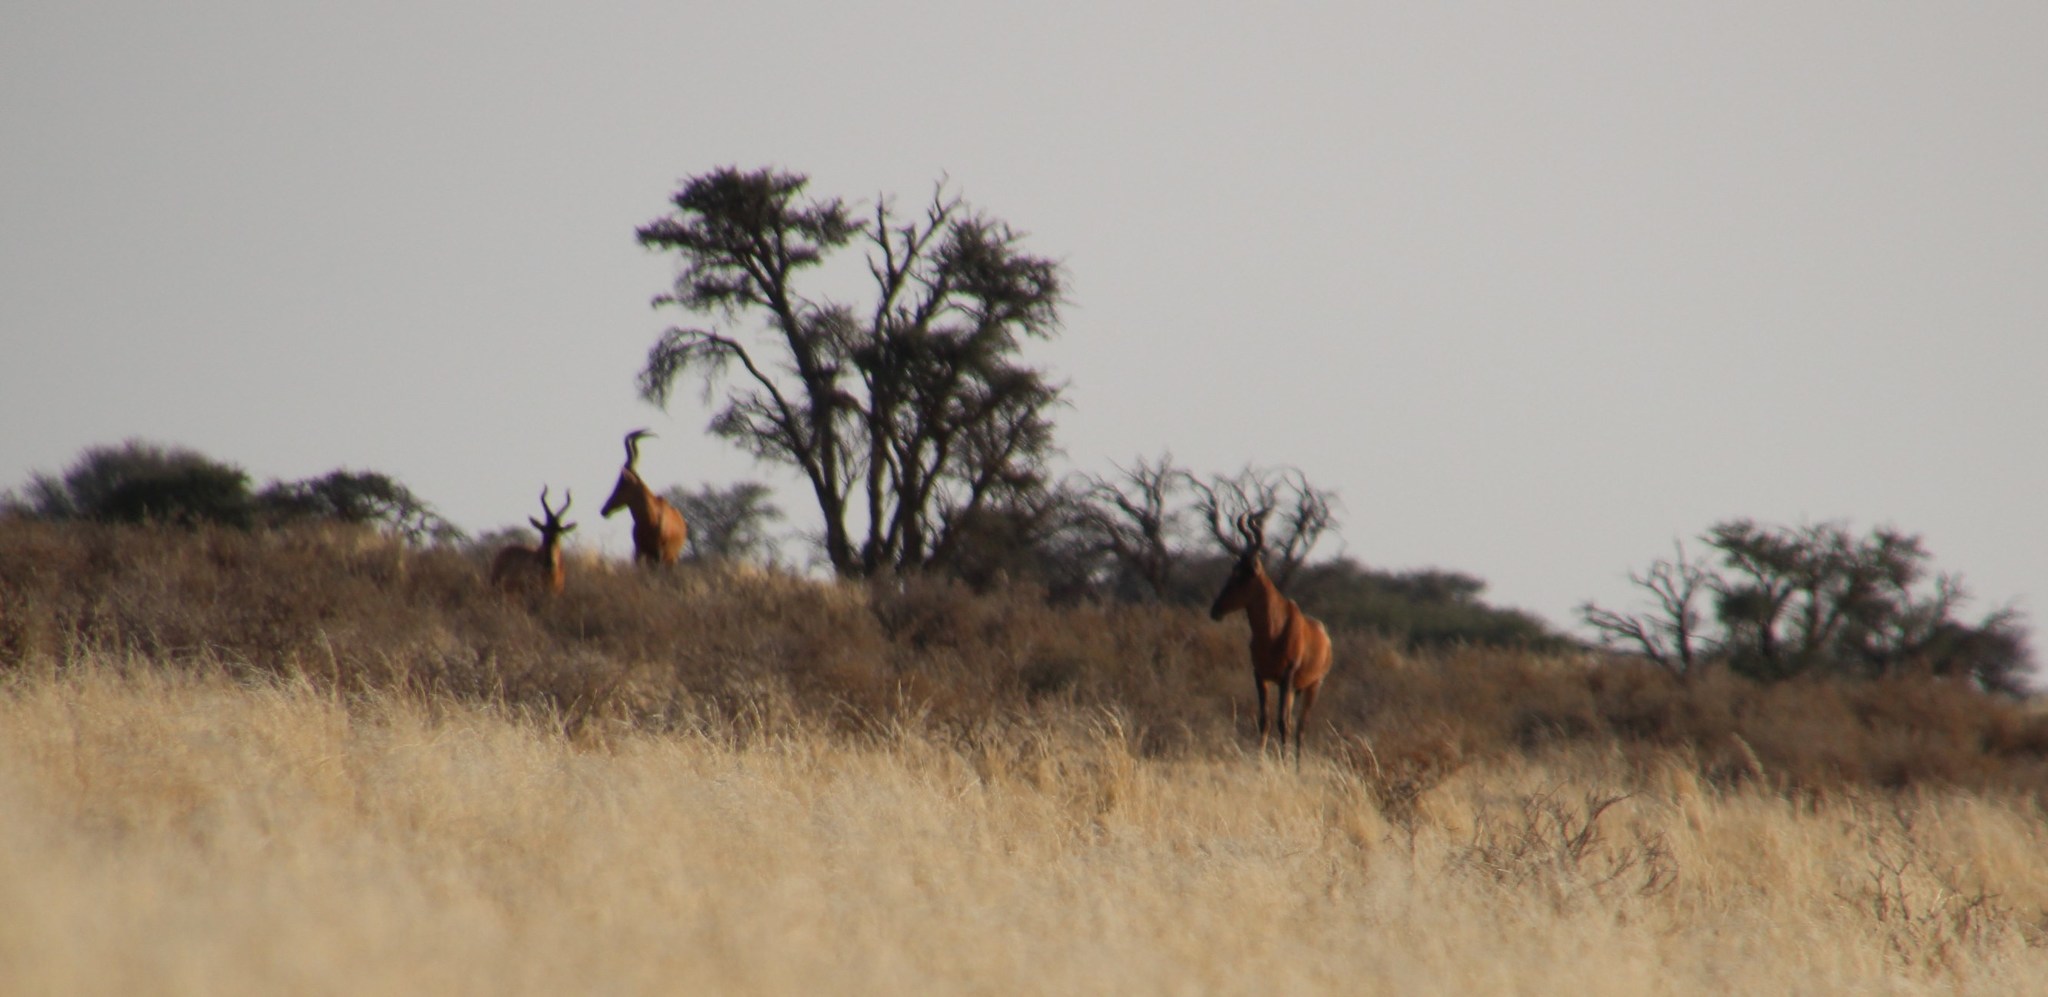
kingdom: Animalia
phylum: Chordata
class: Mammalia
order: Artiodactyla
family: Bovidae
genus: Alcelaphus
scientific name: Alcelaphus caama
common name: Red hartebeest
